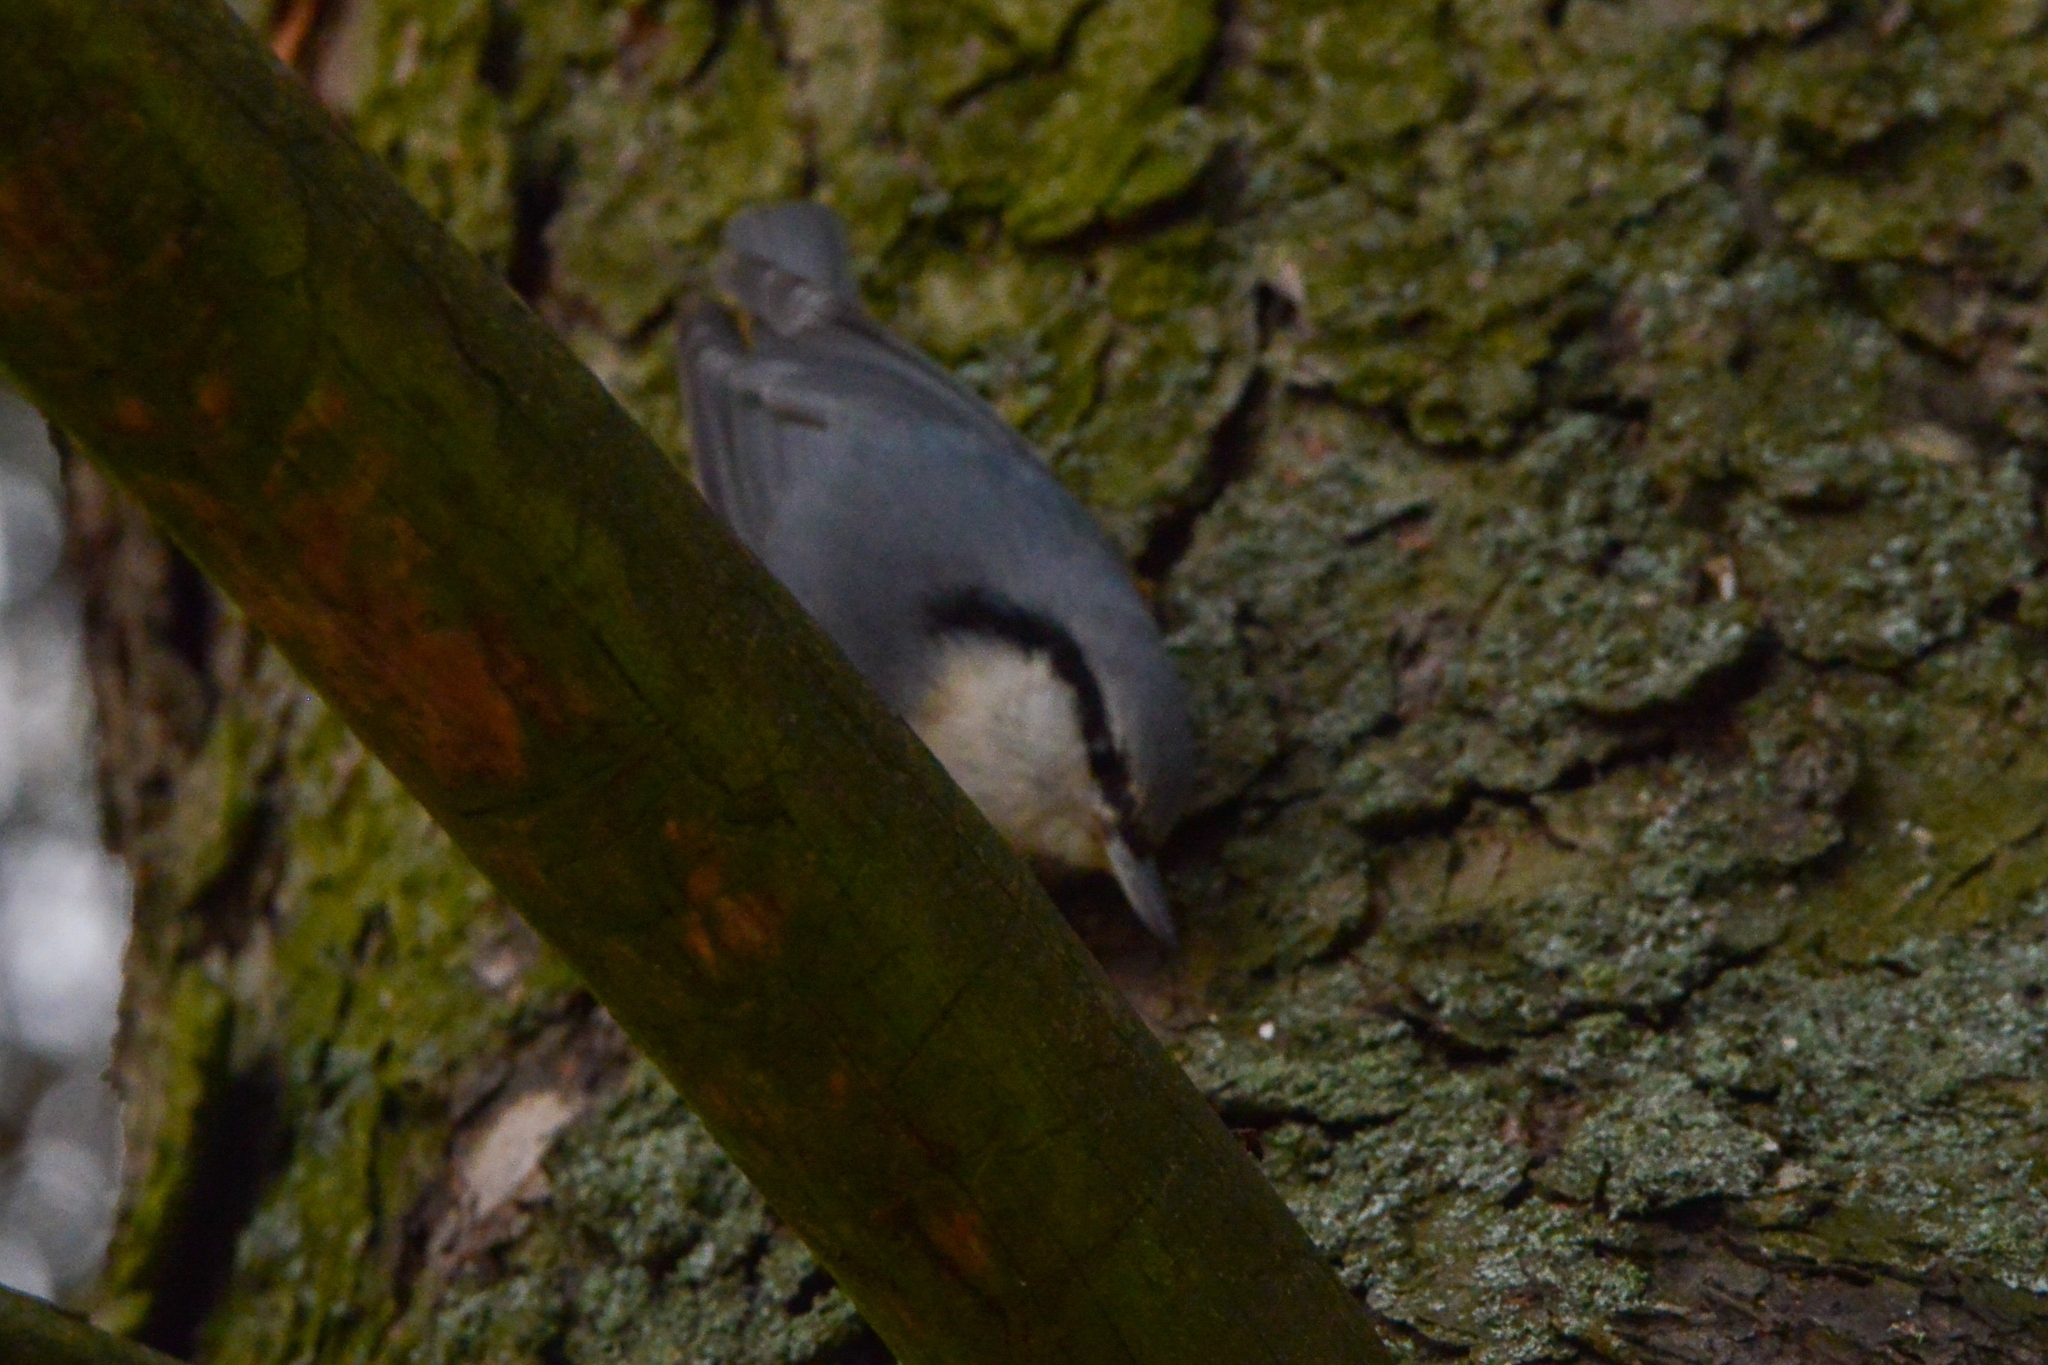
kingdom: Animalia
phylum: Chordata
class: Aves
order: Passeriformes
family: Sittidae
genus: Sitta
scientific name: Sitta europaea
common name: Eurasian nuthatch
